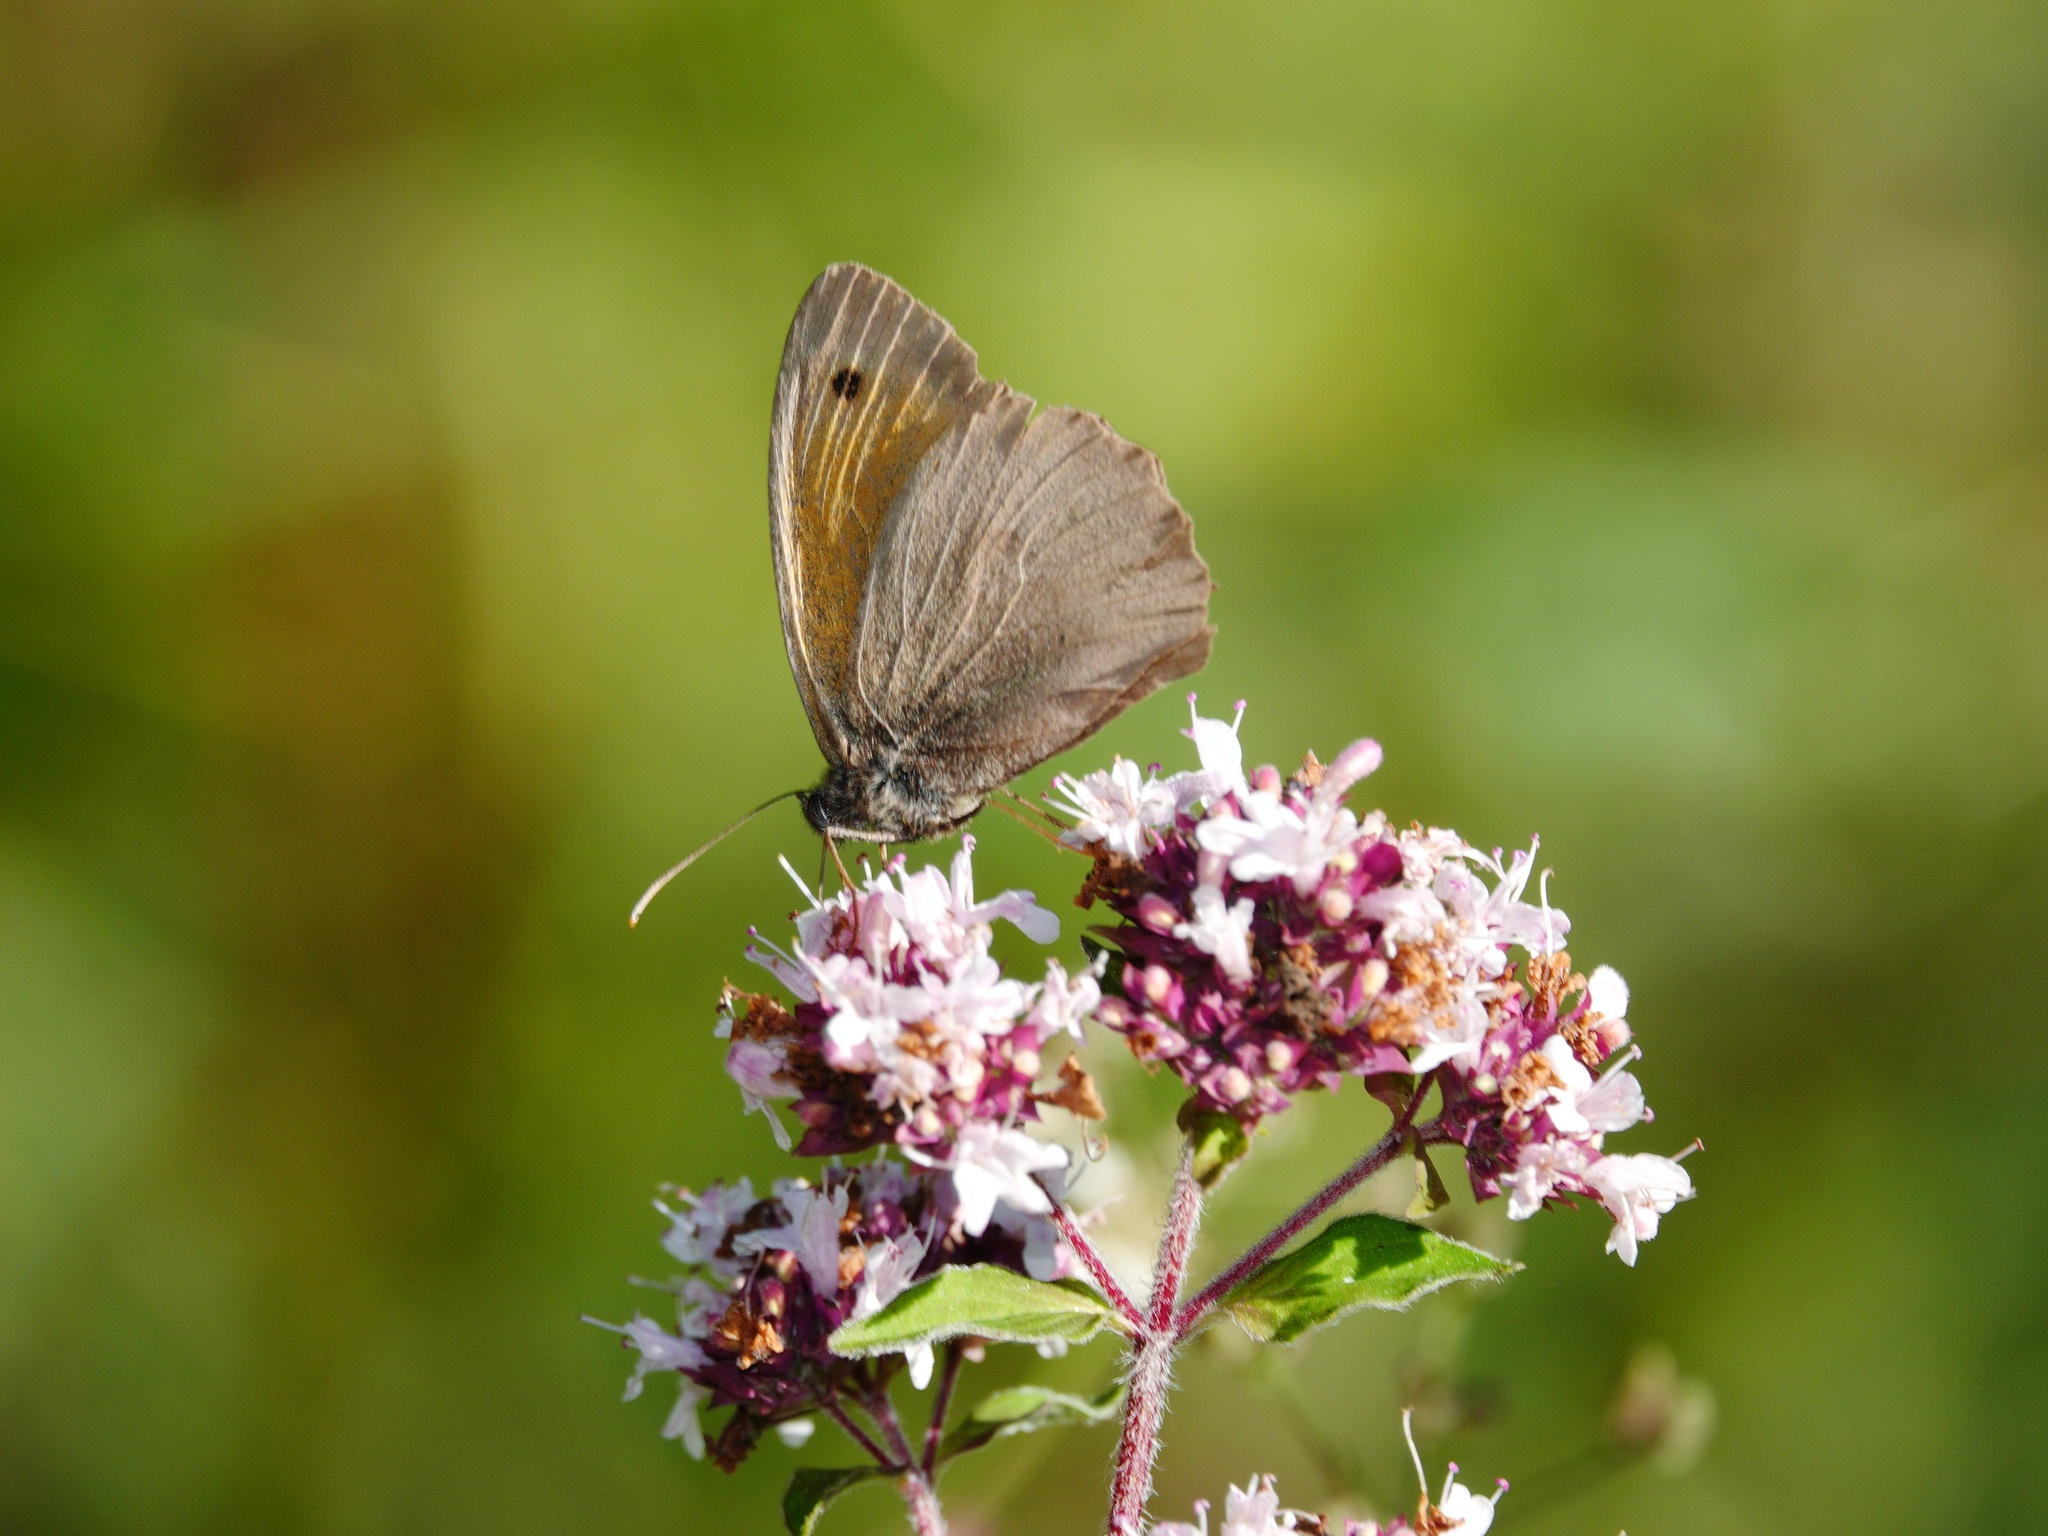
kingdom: Animalia
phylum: Arthropoda
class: Insecta
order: Lepidoptera
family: Nymphalidae
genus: Maniola
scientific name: Maniola jurtina
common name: Meadow brown
